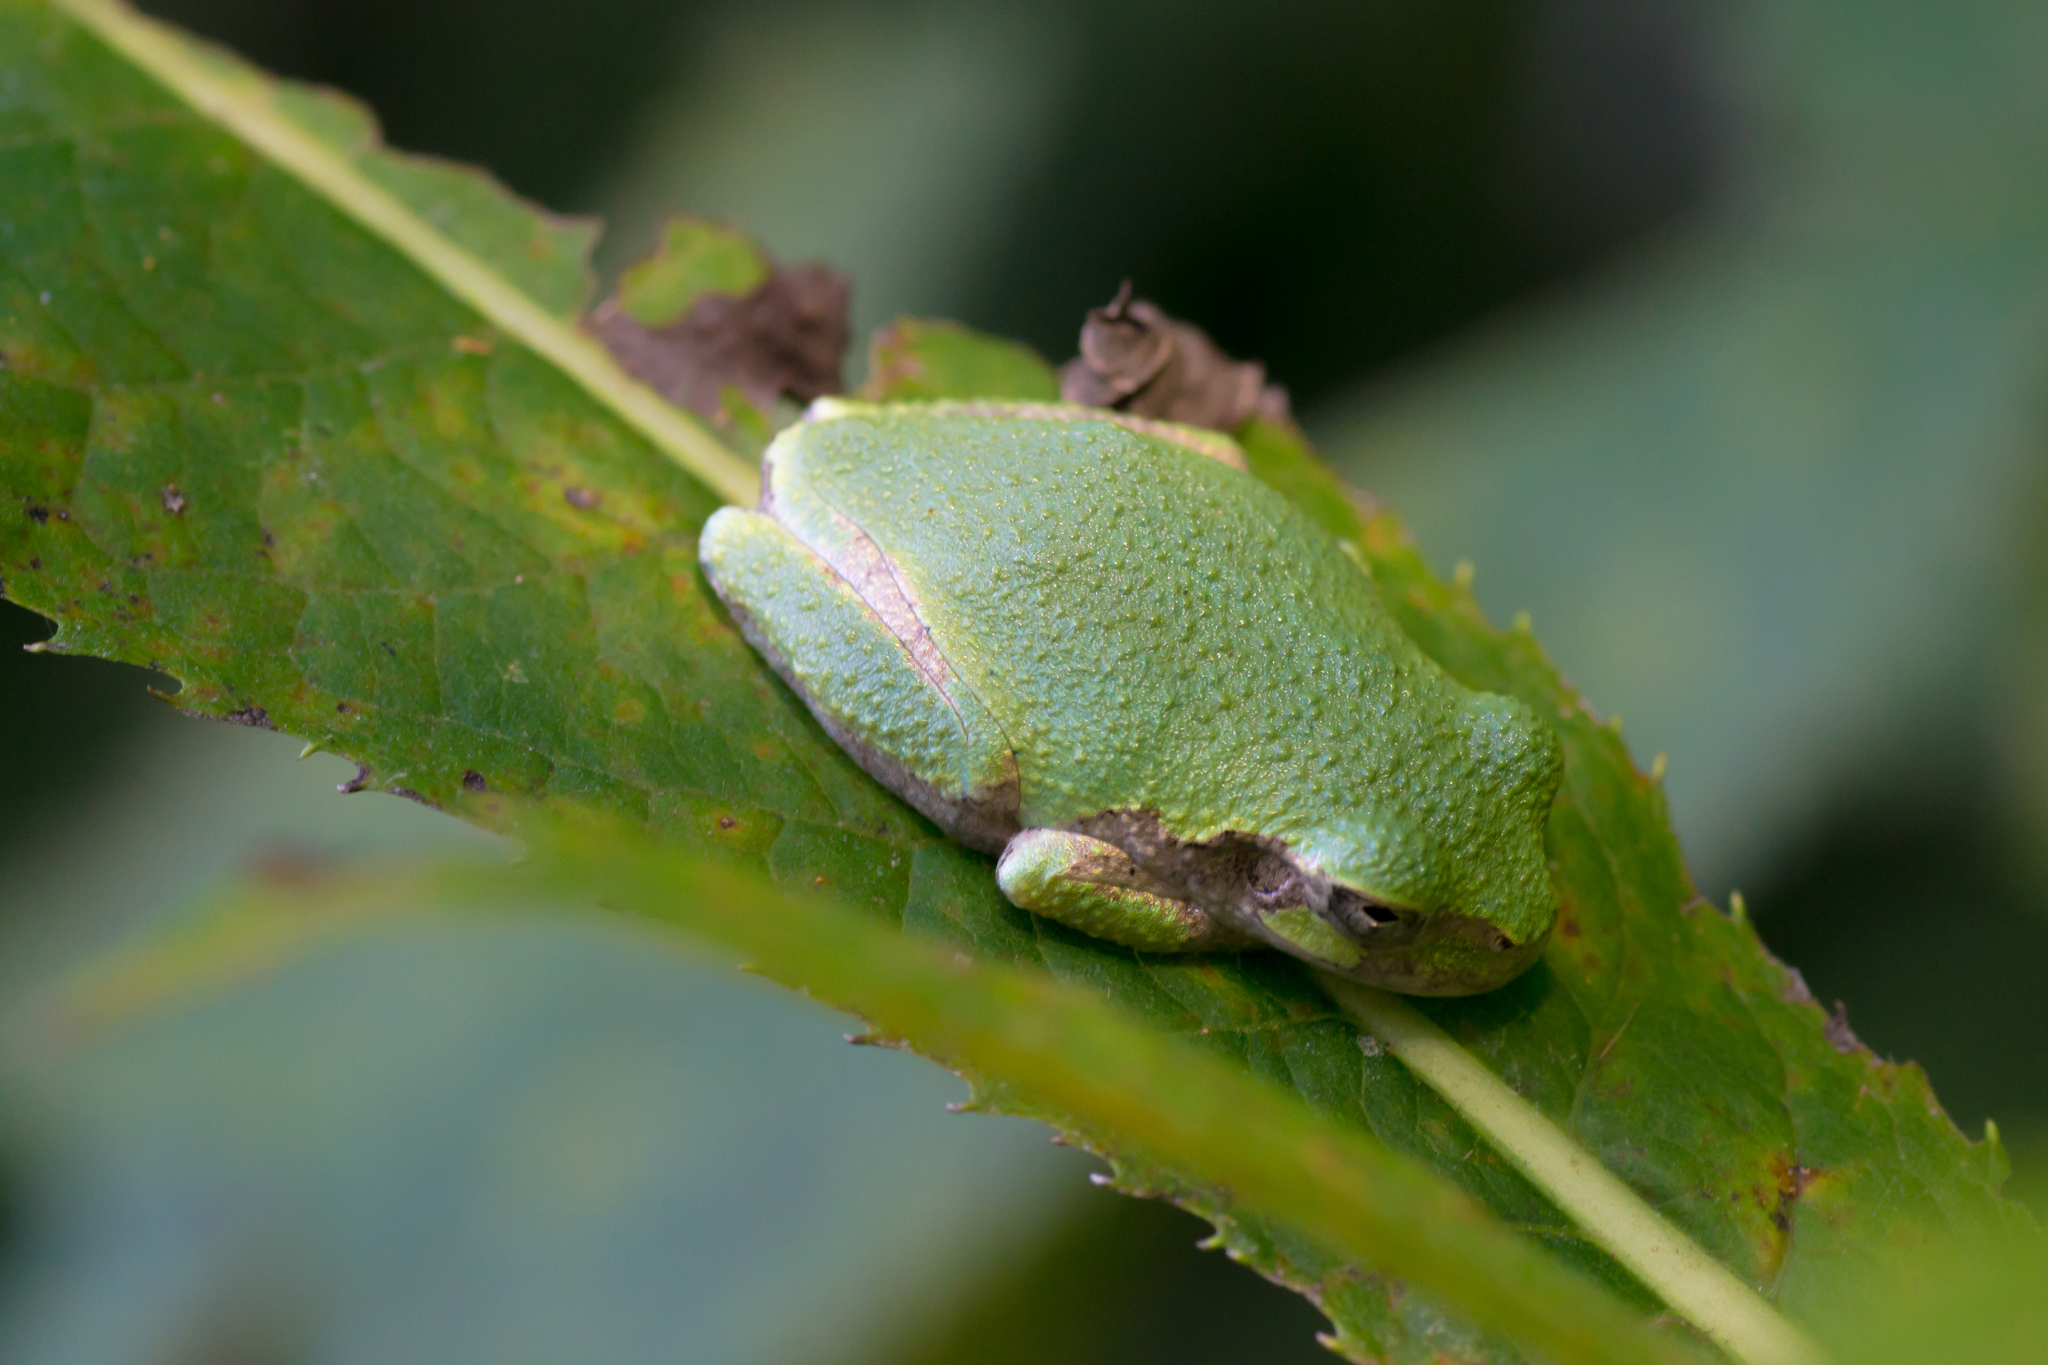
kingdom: Animalia
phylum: Chordata
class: Amphibia
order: Anura
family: Hylidae
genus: Hyla
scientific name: Hyla
